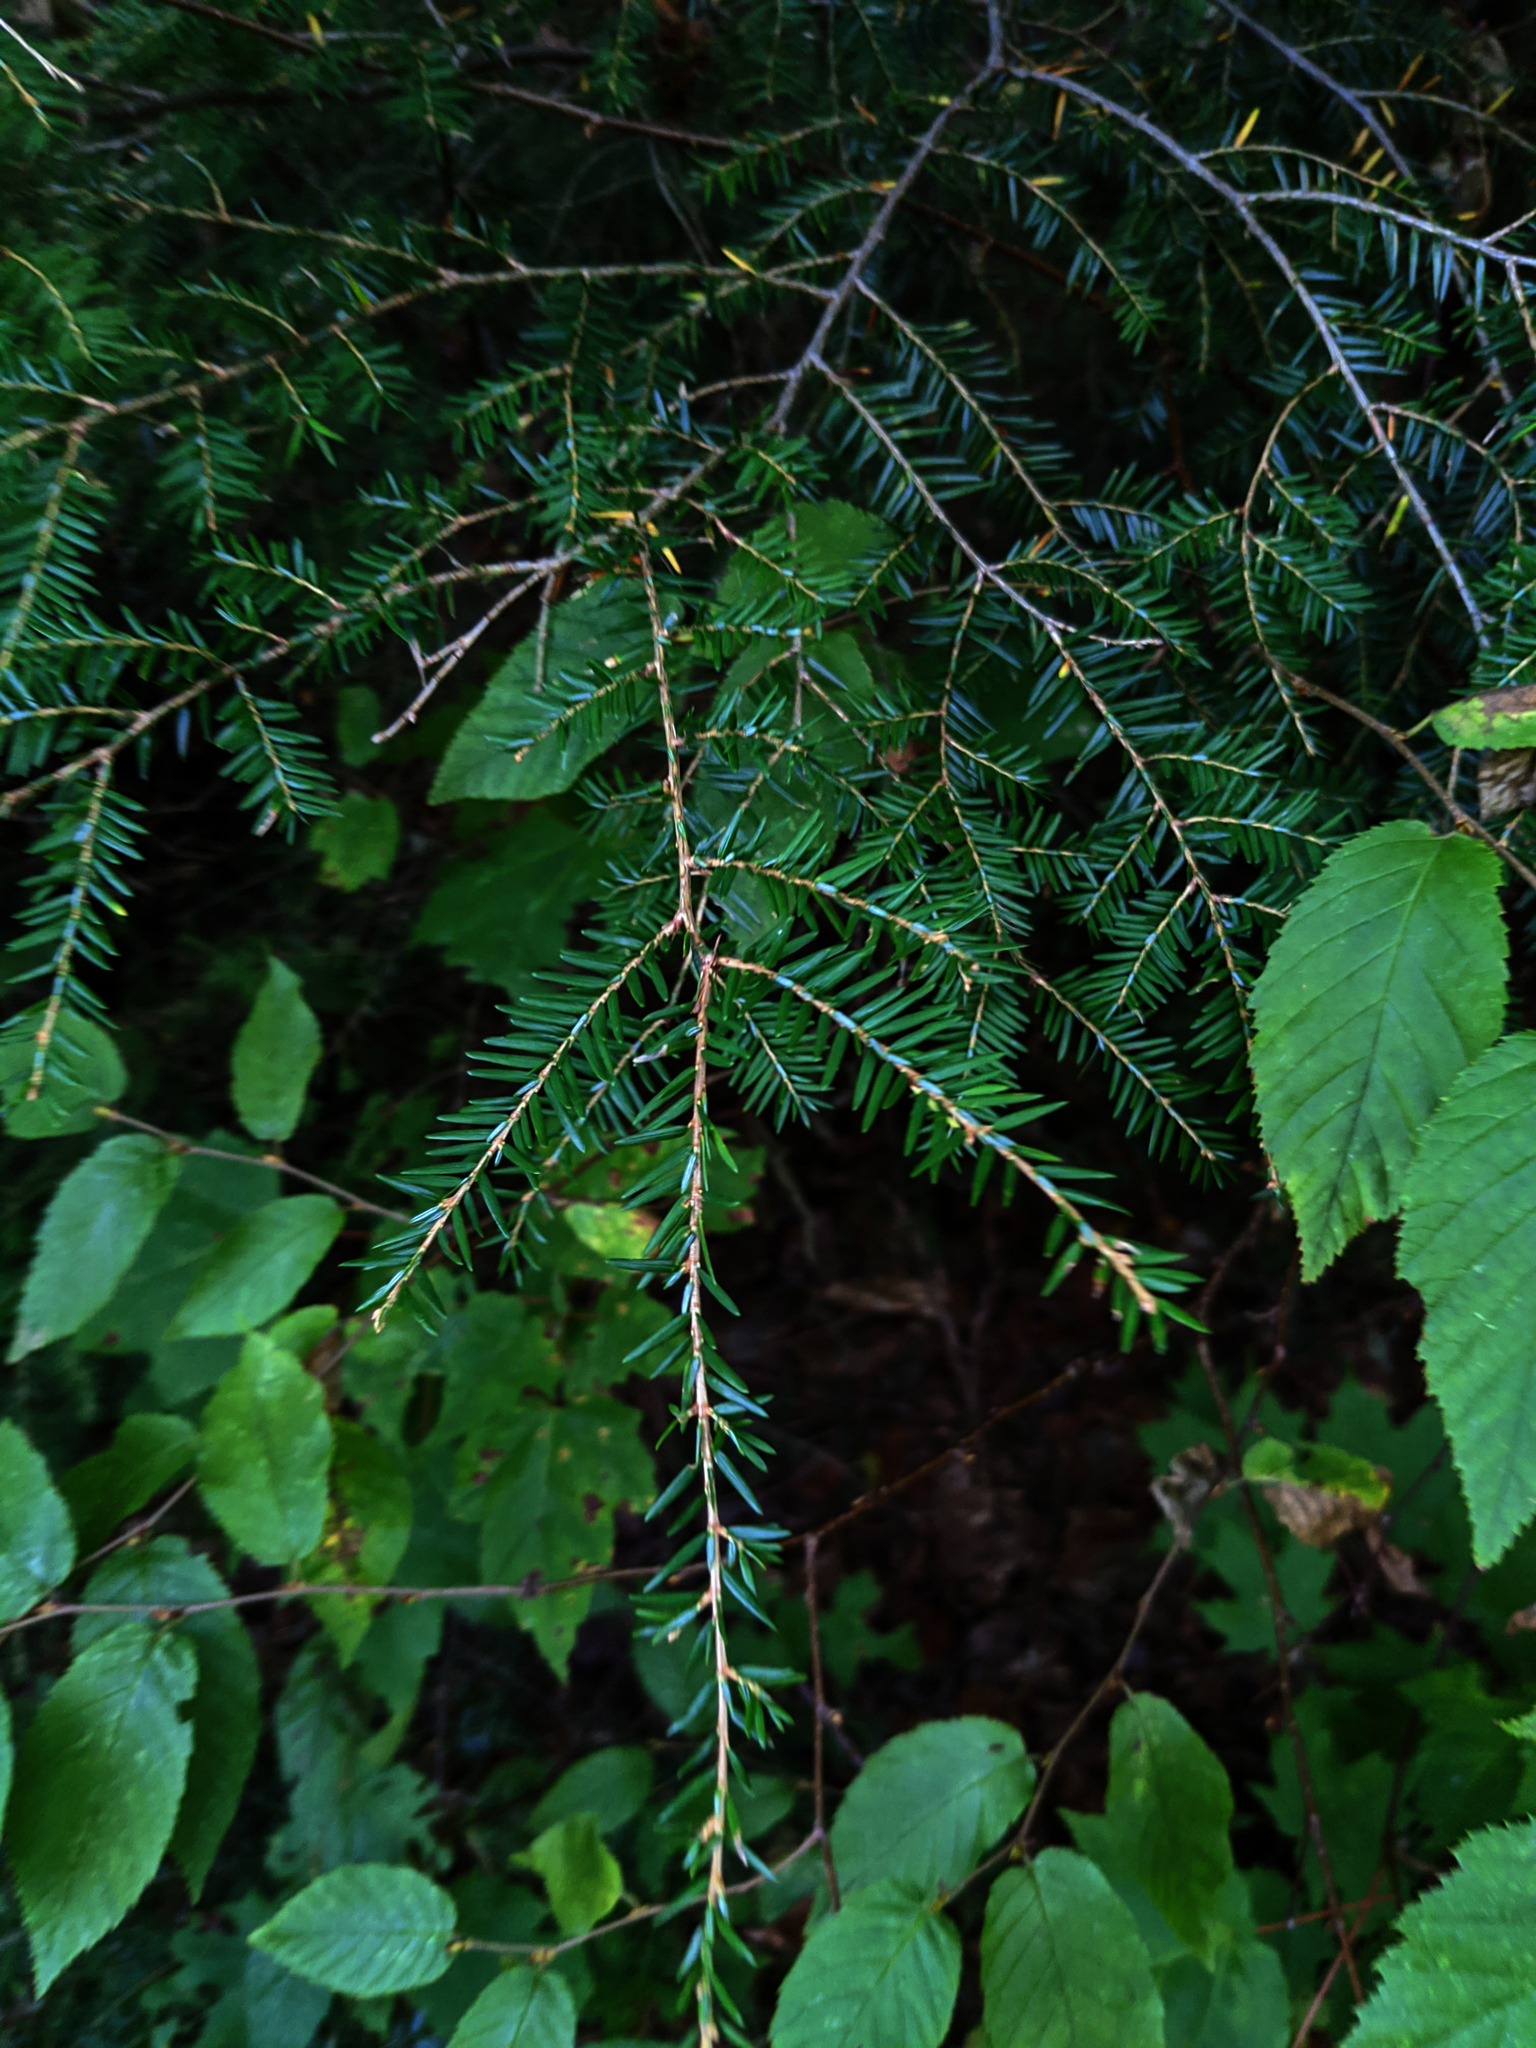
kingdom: Plantae
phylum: Tracheophyta
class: Pinopsida
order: Pinales
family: Pinaceae
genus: Tsuga
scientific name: Tsuga canadensis
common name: Eastern hemlock
